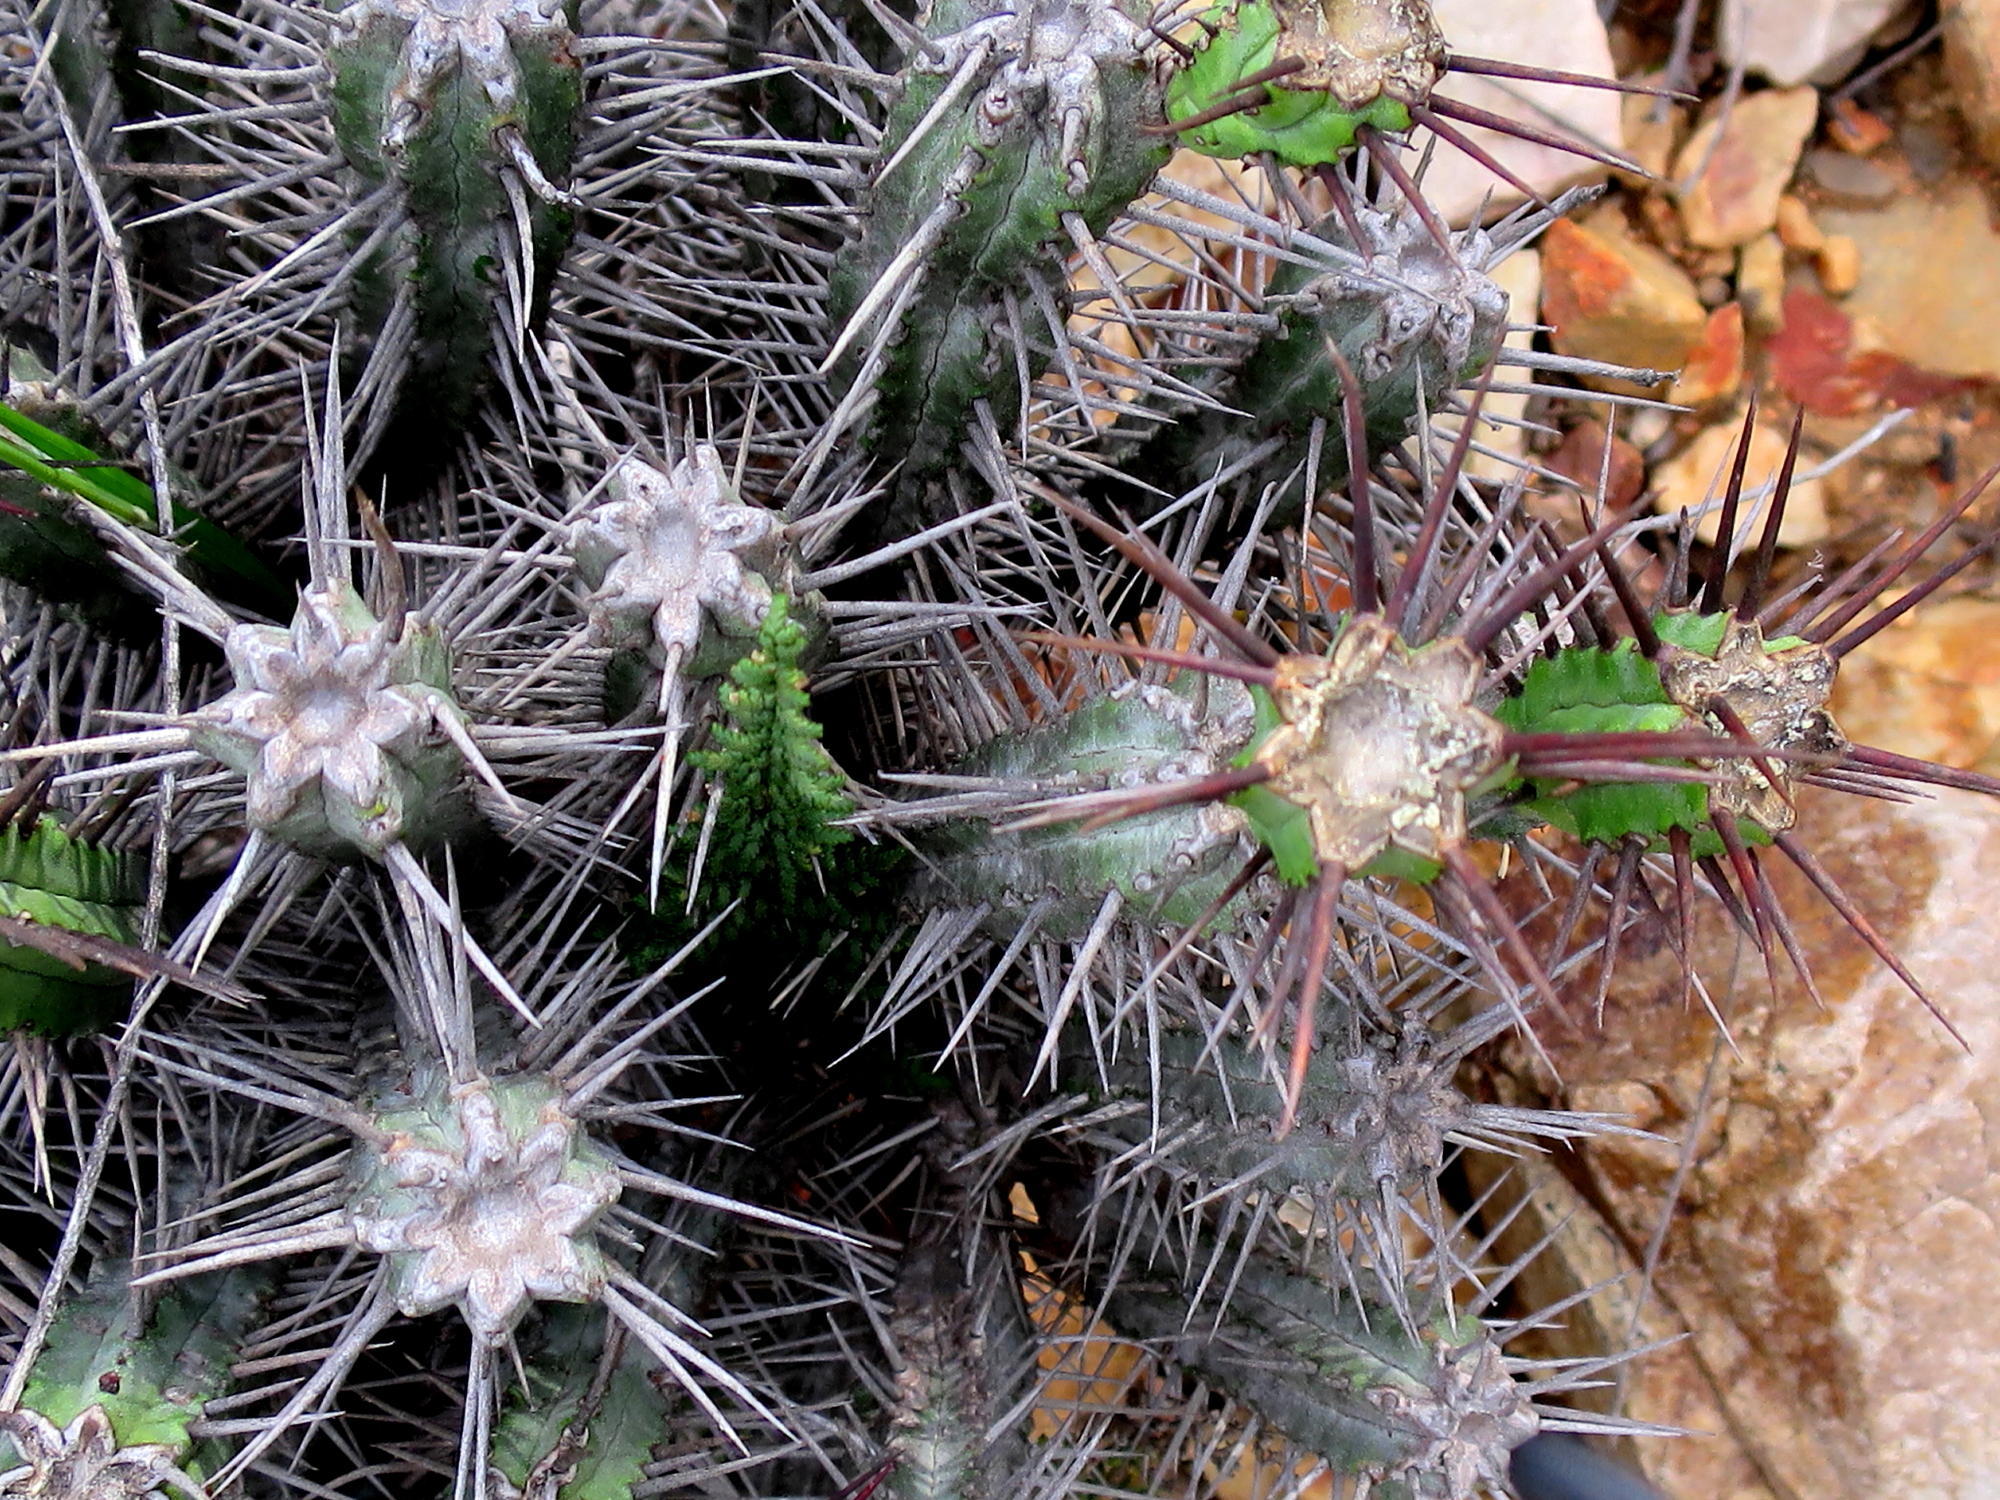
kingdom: Plantae
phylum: Tracheophyta
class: Magnoliopsida
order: Malpighiales
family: Euphorbiaceae
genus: Euphorbia
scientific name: Euphorbia heptagona
